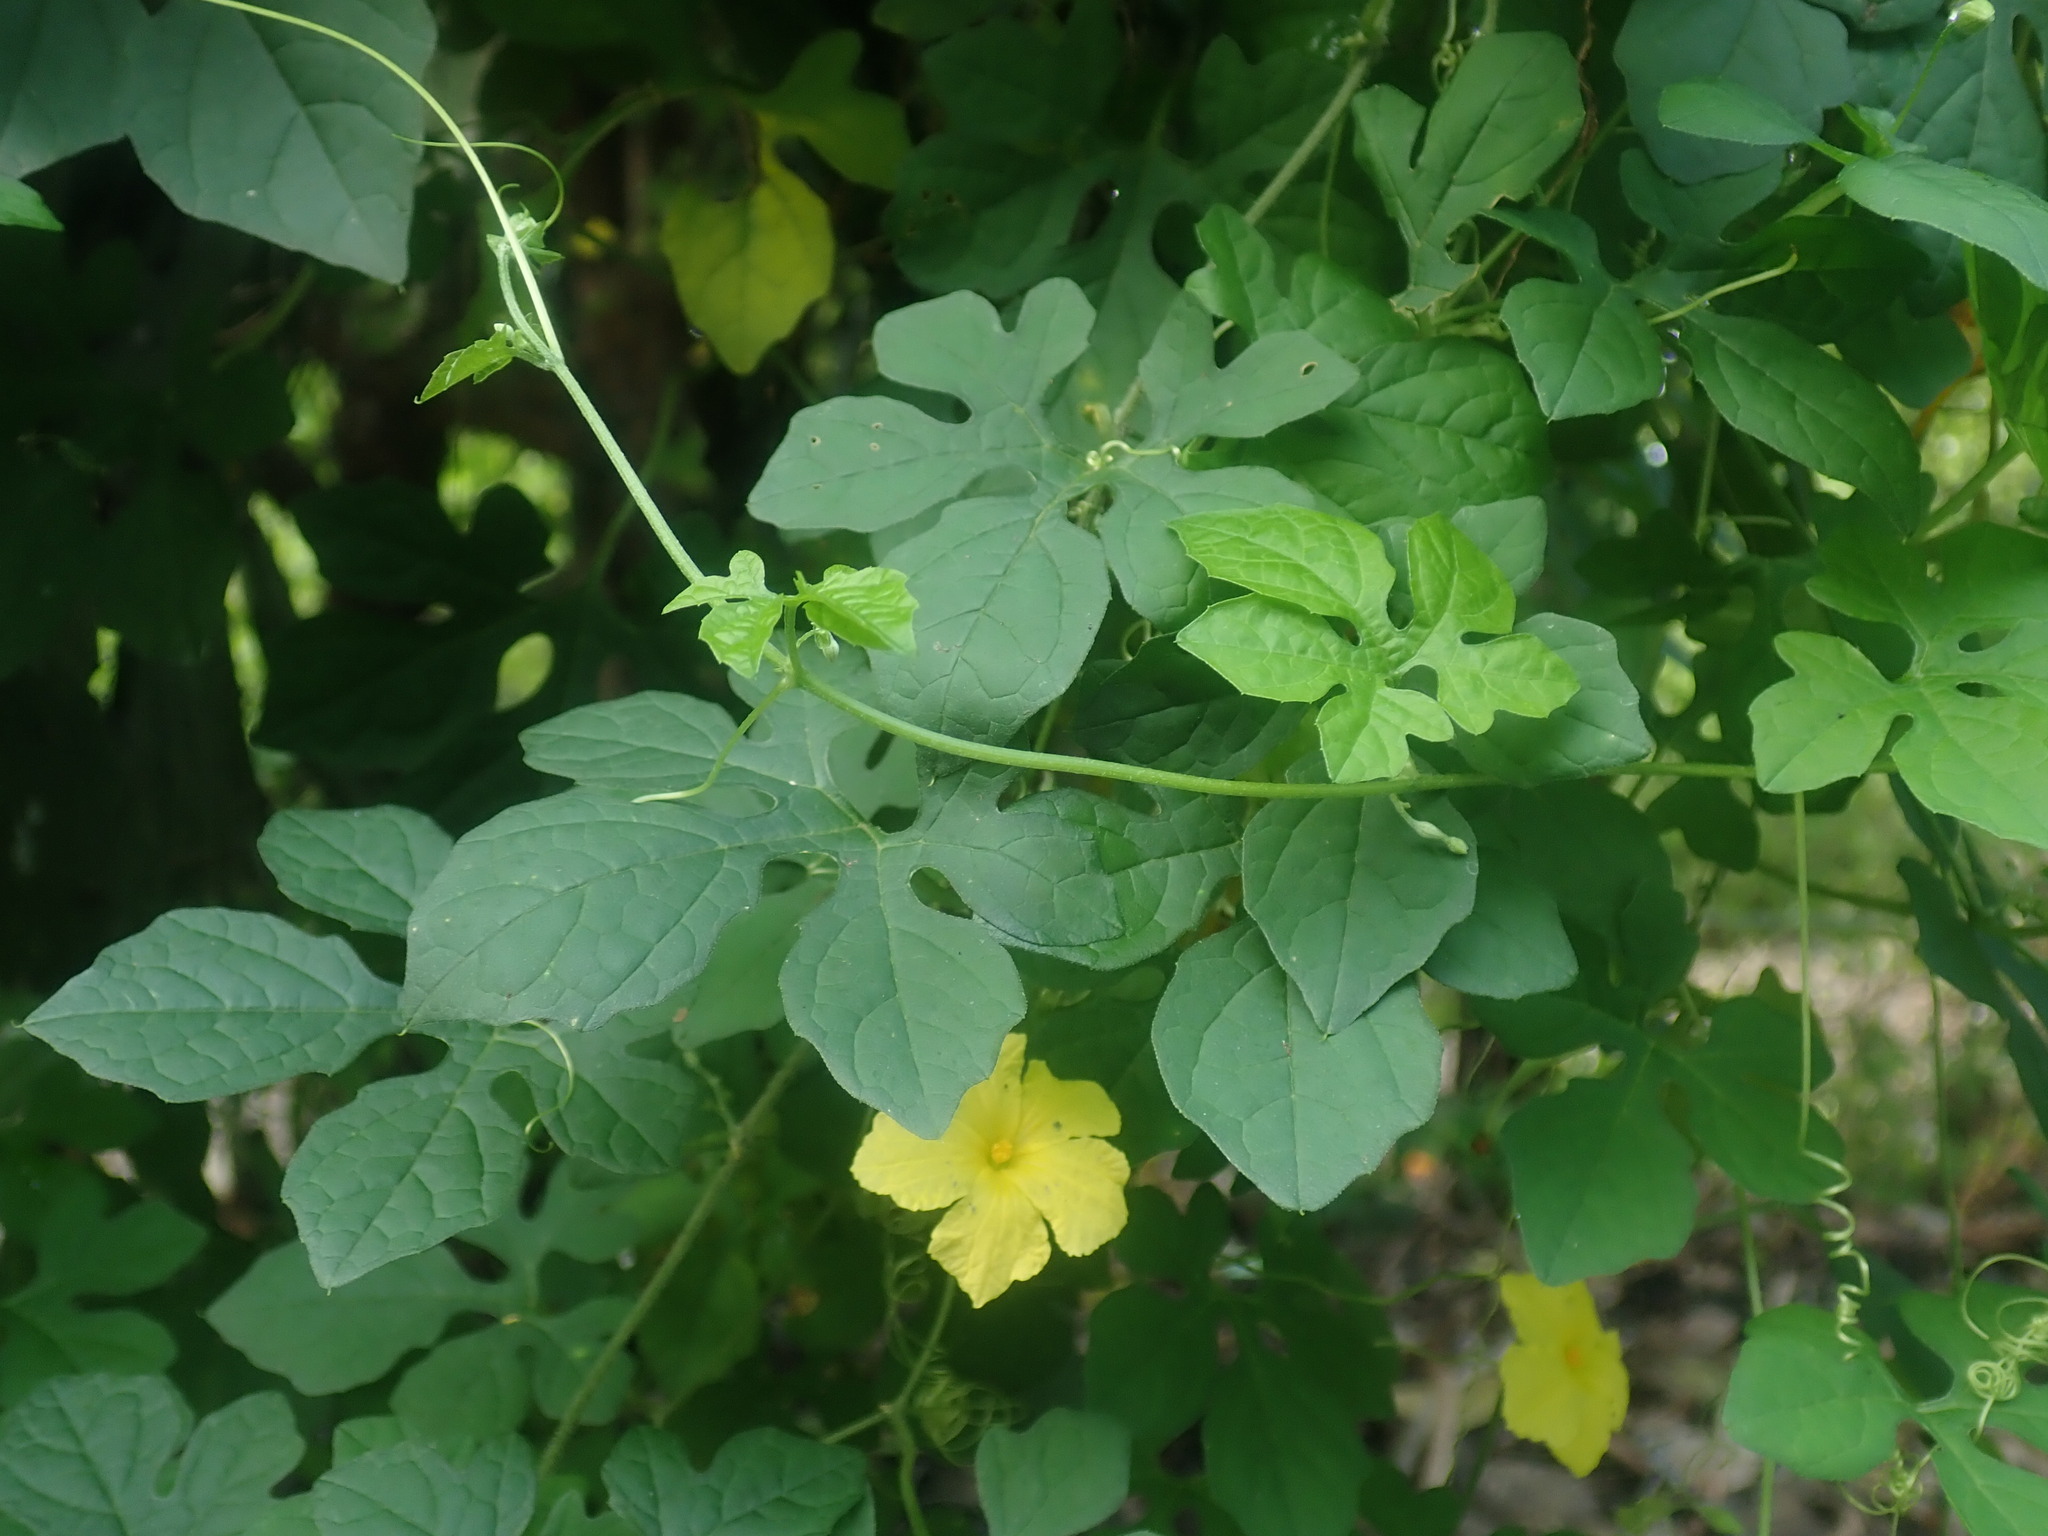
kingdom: Plantae
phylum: Tracheophyta
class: Magnoliopsida
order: Cucurbitales
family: Cucurbitaceae
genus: Momordica
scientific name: Momordica charantia
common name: Balsampear
